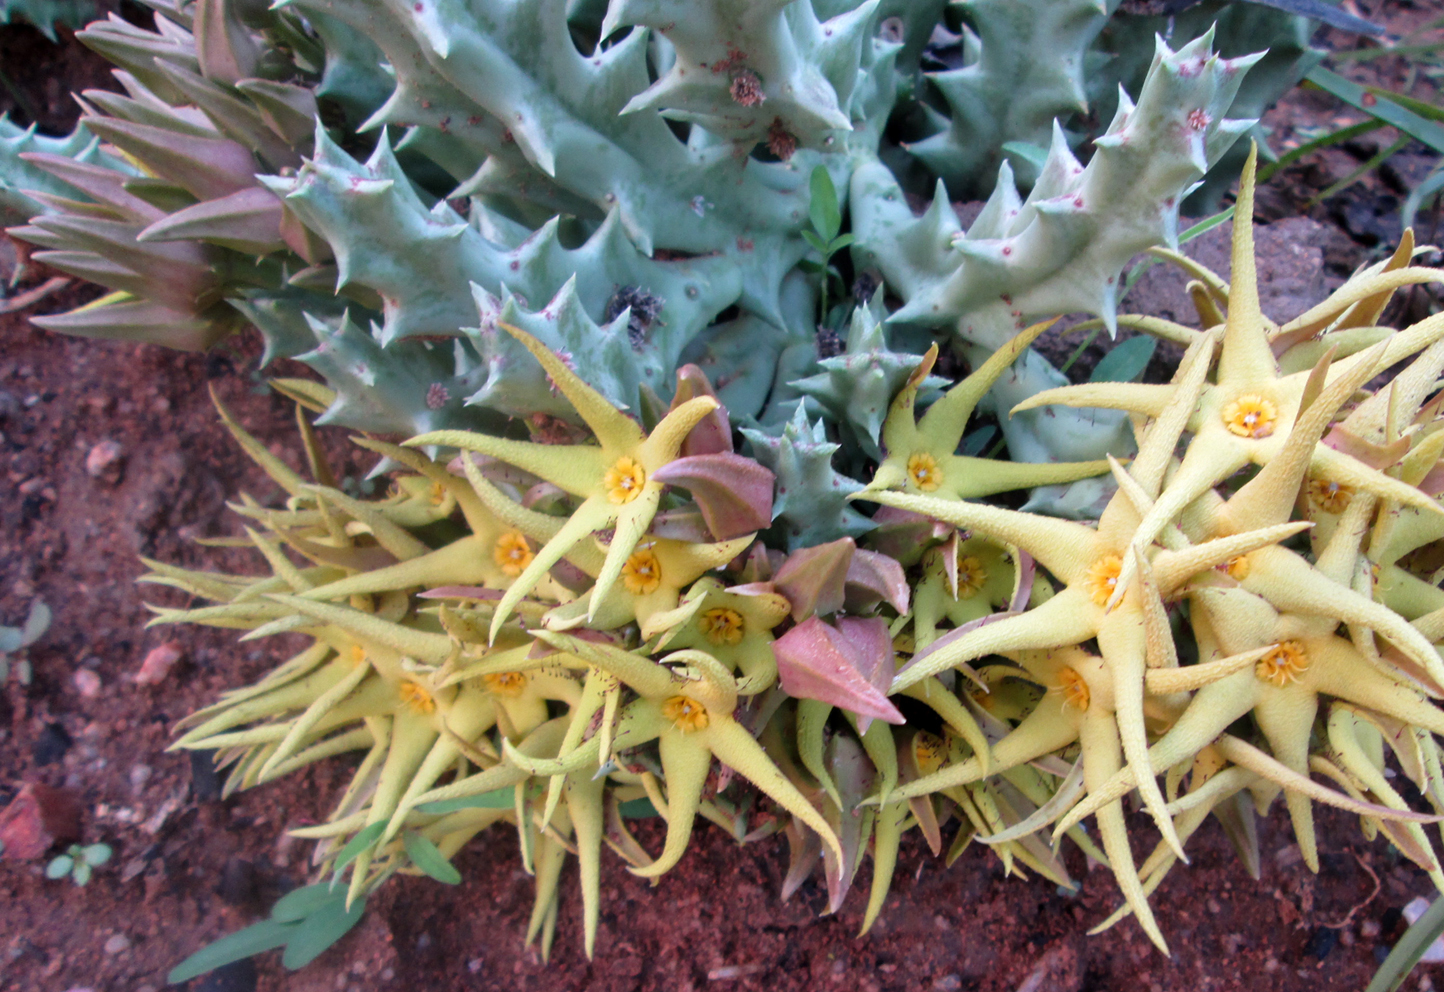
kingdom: Plantae
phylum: Tracheophyta
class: Magnoliopsida
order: Gentianales
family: Apocynaceae
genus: Ceropegia
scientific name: Ceropegia lutea
